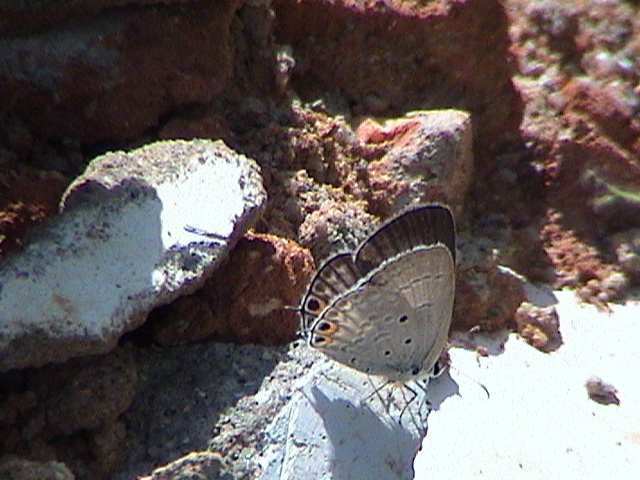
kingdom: Animalia
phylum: Arthropoda
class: Insecta
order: Lepidoptera
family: Lycaenidae
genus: Euchrysops
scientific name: Euchrysops cnejus
